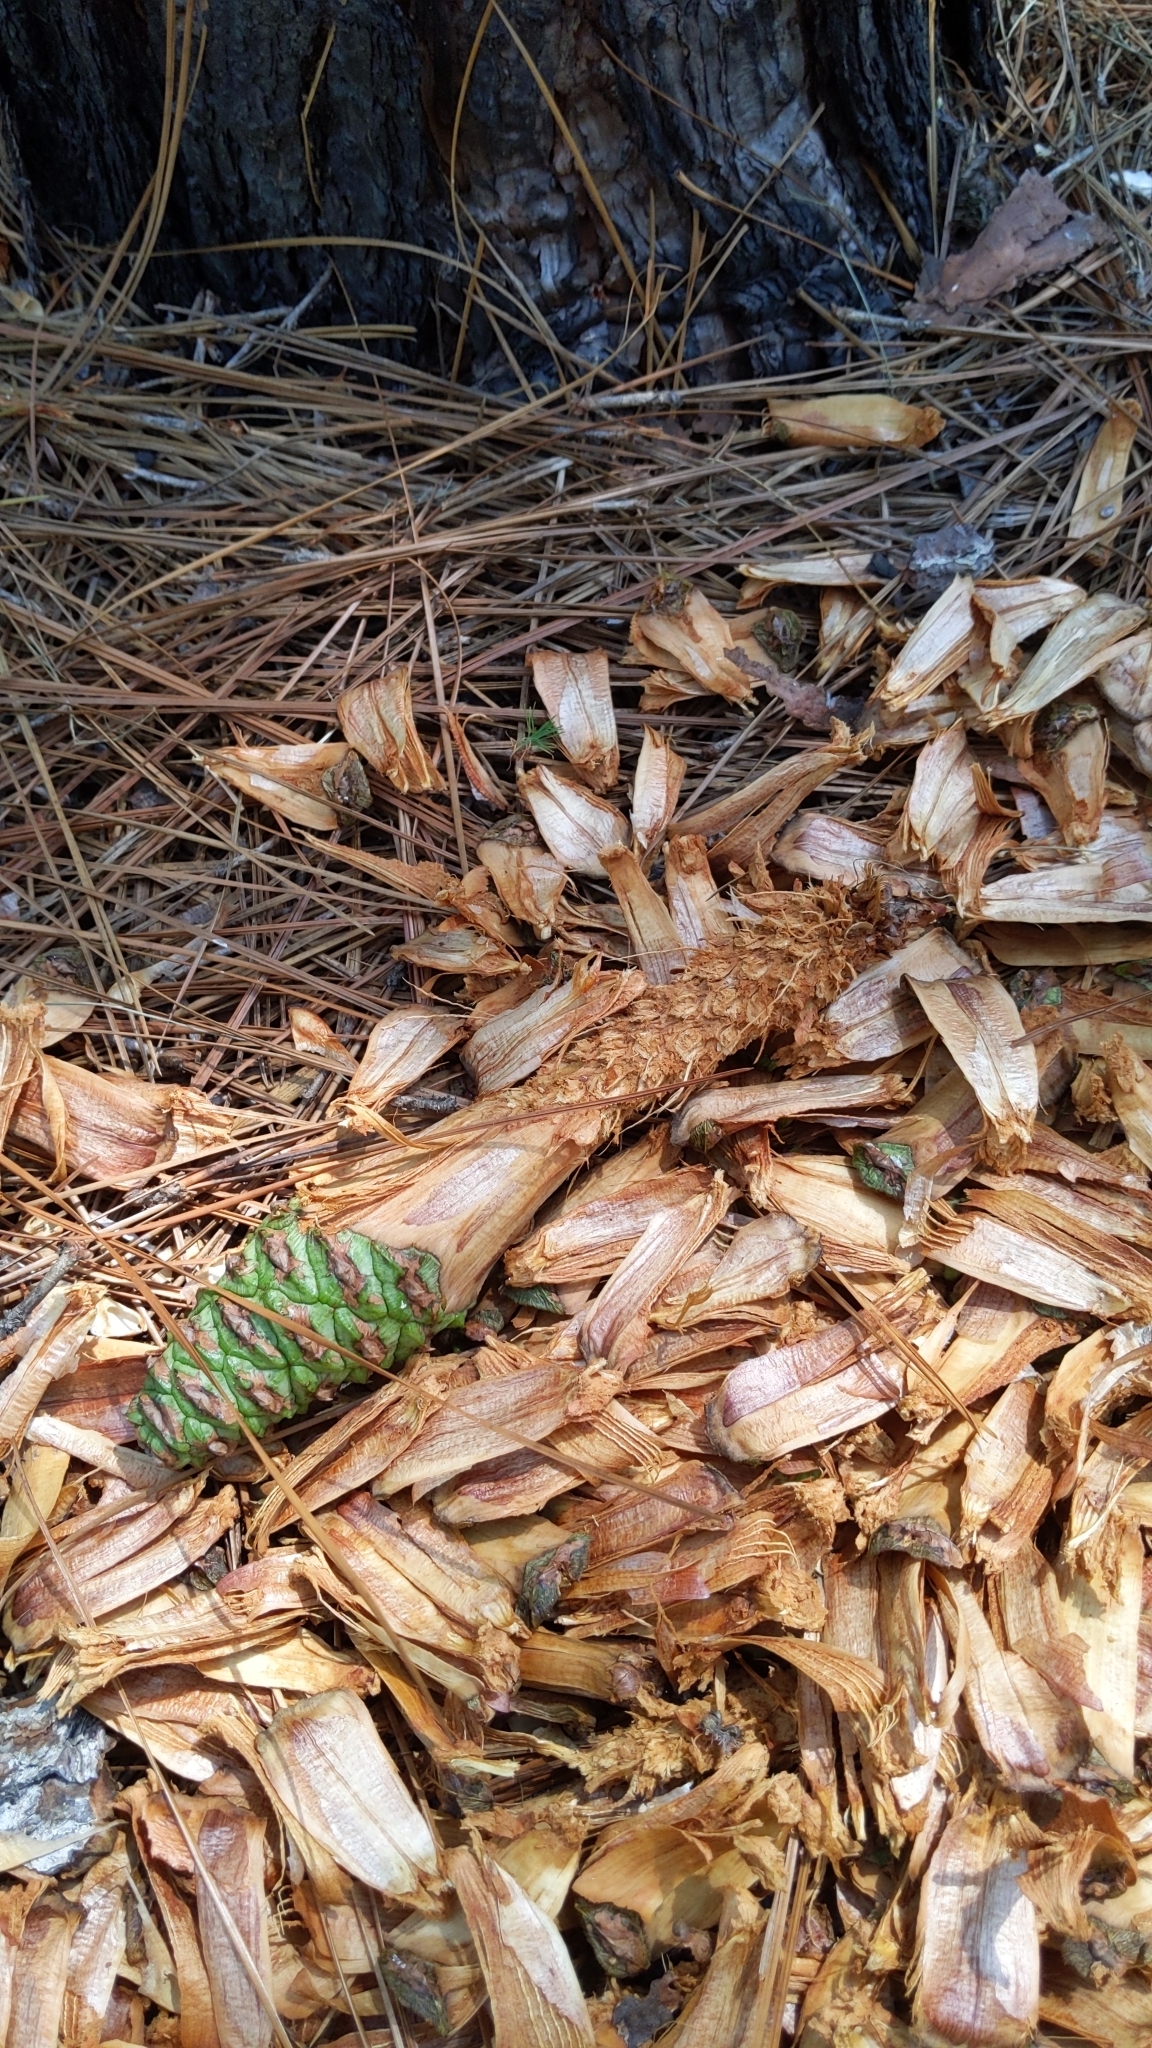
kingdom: Plantae
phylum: Tracheophyta
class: Pinopsida
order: Pinales
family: Pinaceae
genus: Pinus
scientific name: Pinus palustris
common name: Longleaf pine
